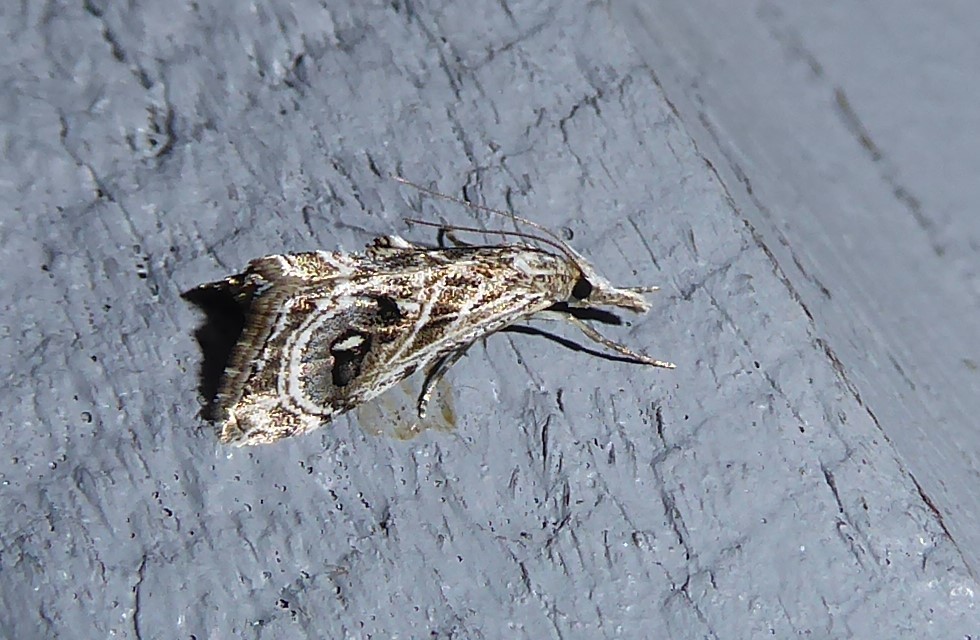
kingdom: Animalia
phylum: Arthropoda
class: Insecta
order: Lepidoptera
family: Crambidae
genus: Gadira
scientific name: Gadira acerella
